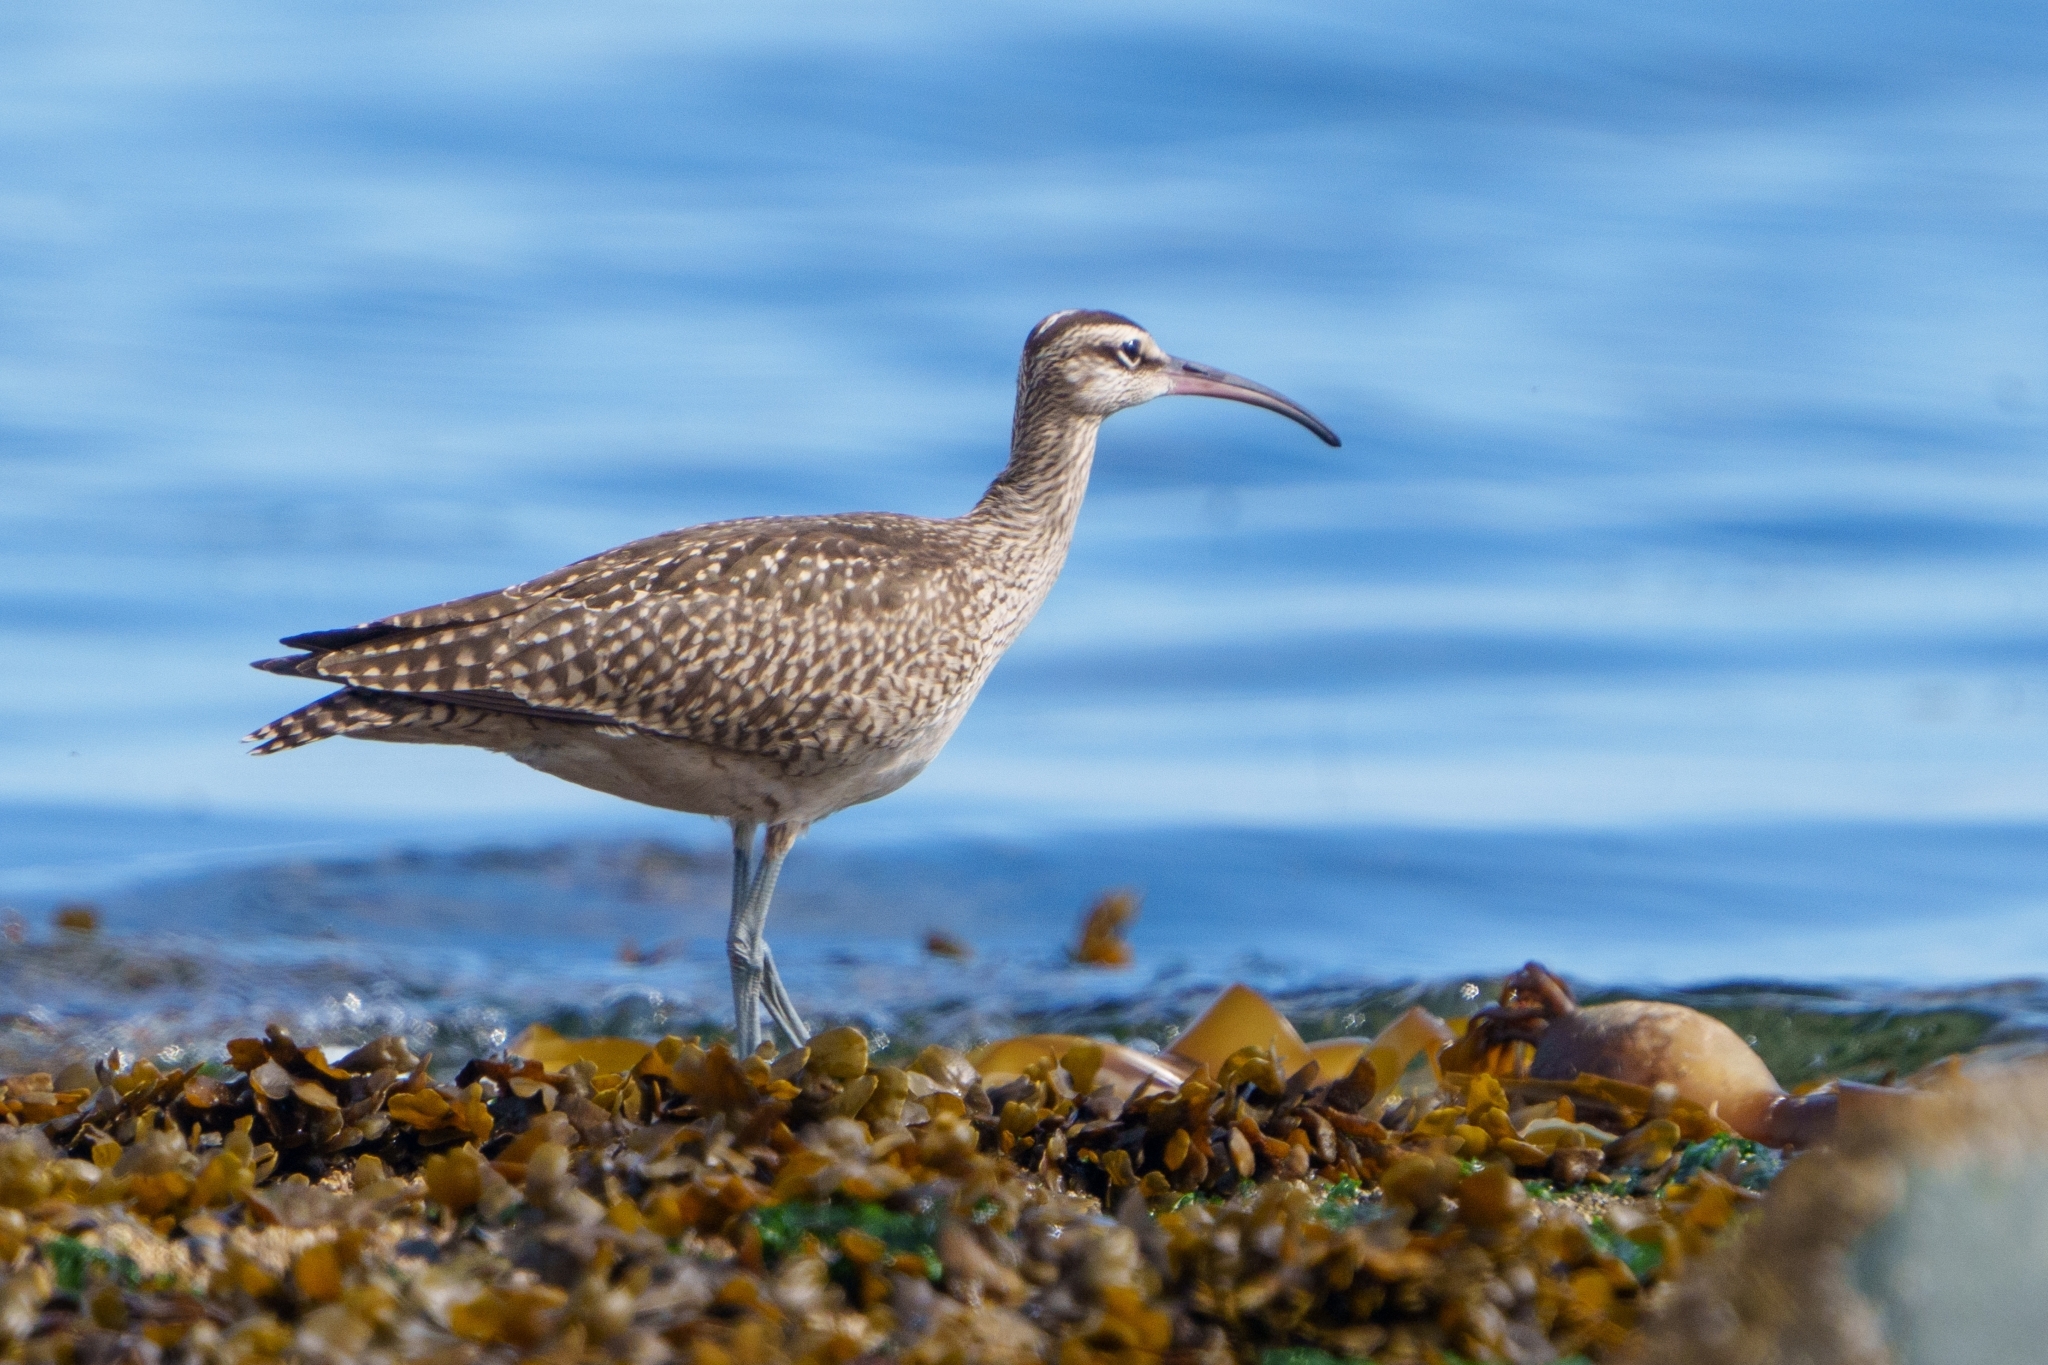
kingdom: Animalia
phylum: Chordata
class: Aves
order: Charadriiformes
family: Scolopacidae
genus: Numenius
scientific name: Numenius phaeopus
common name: Whimbrel
